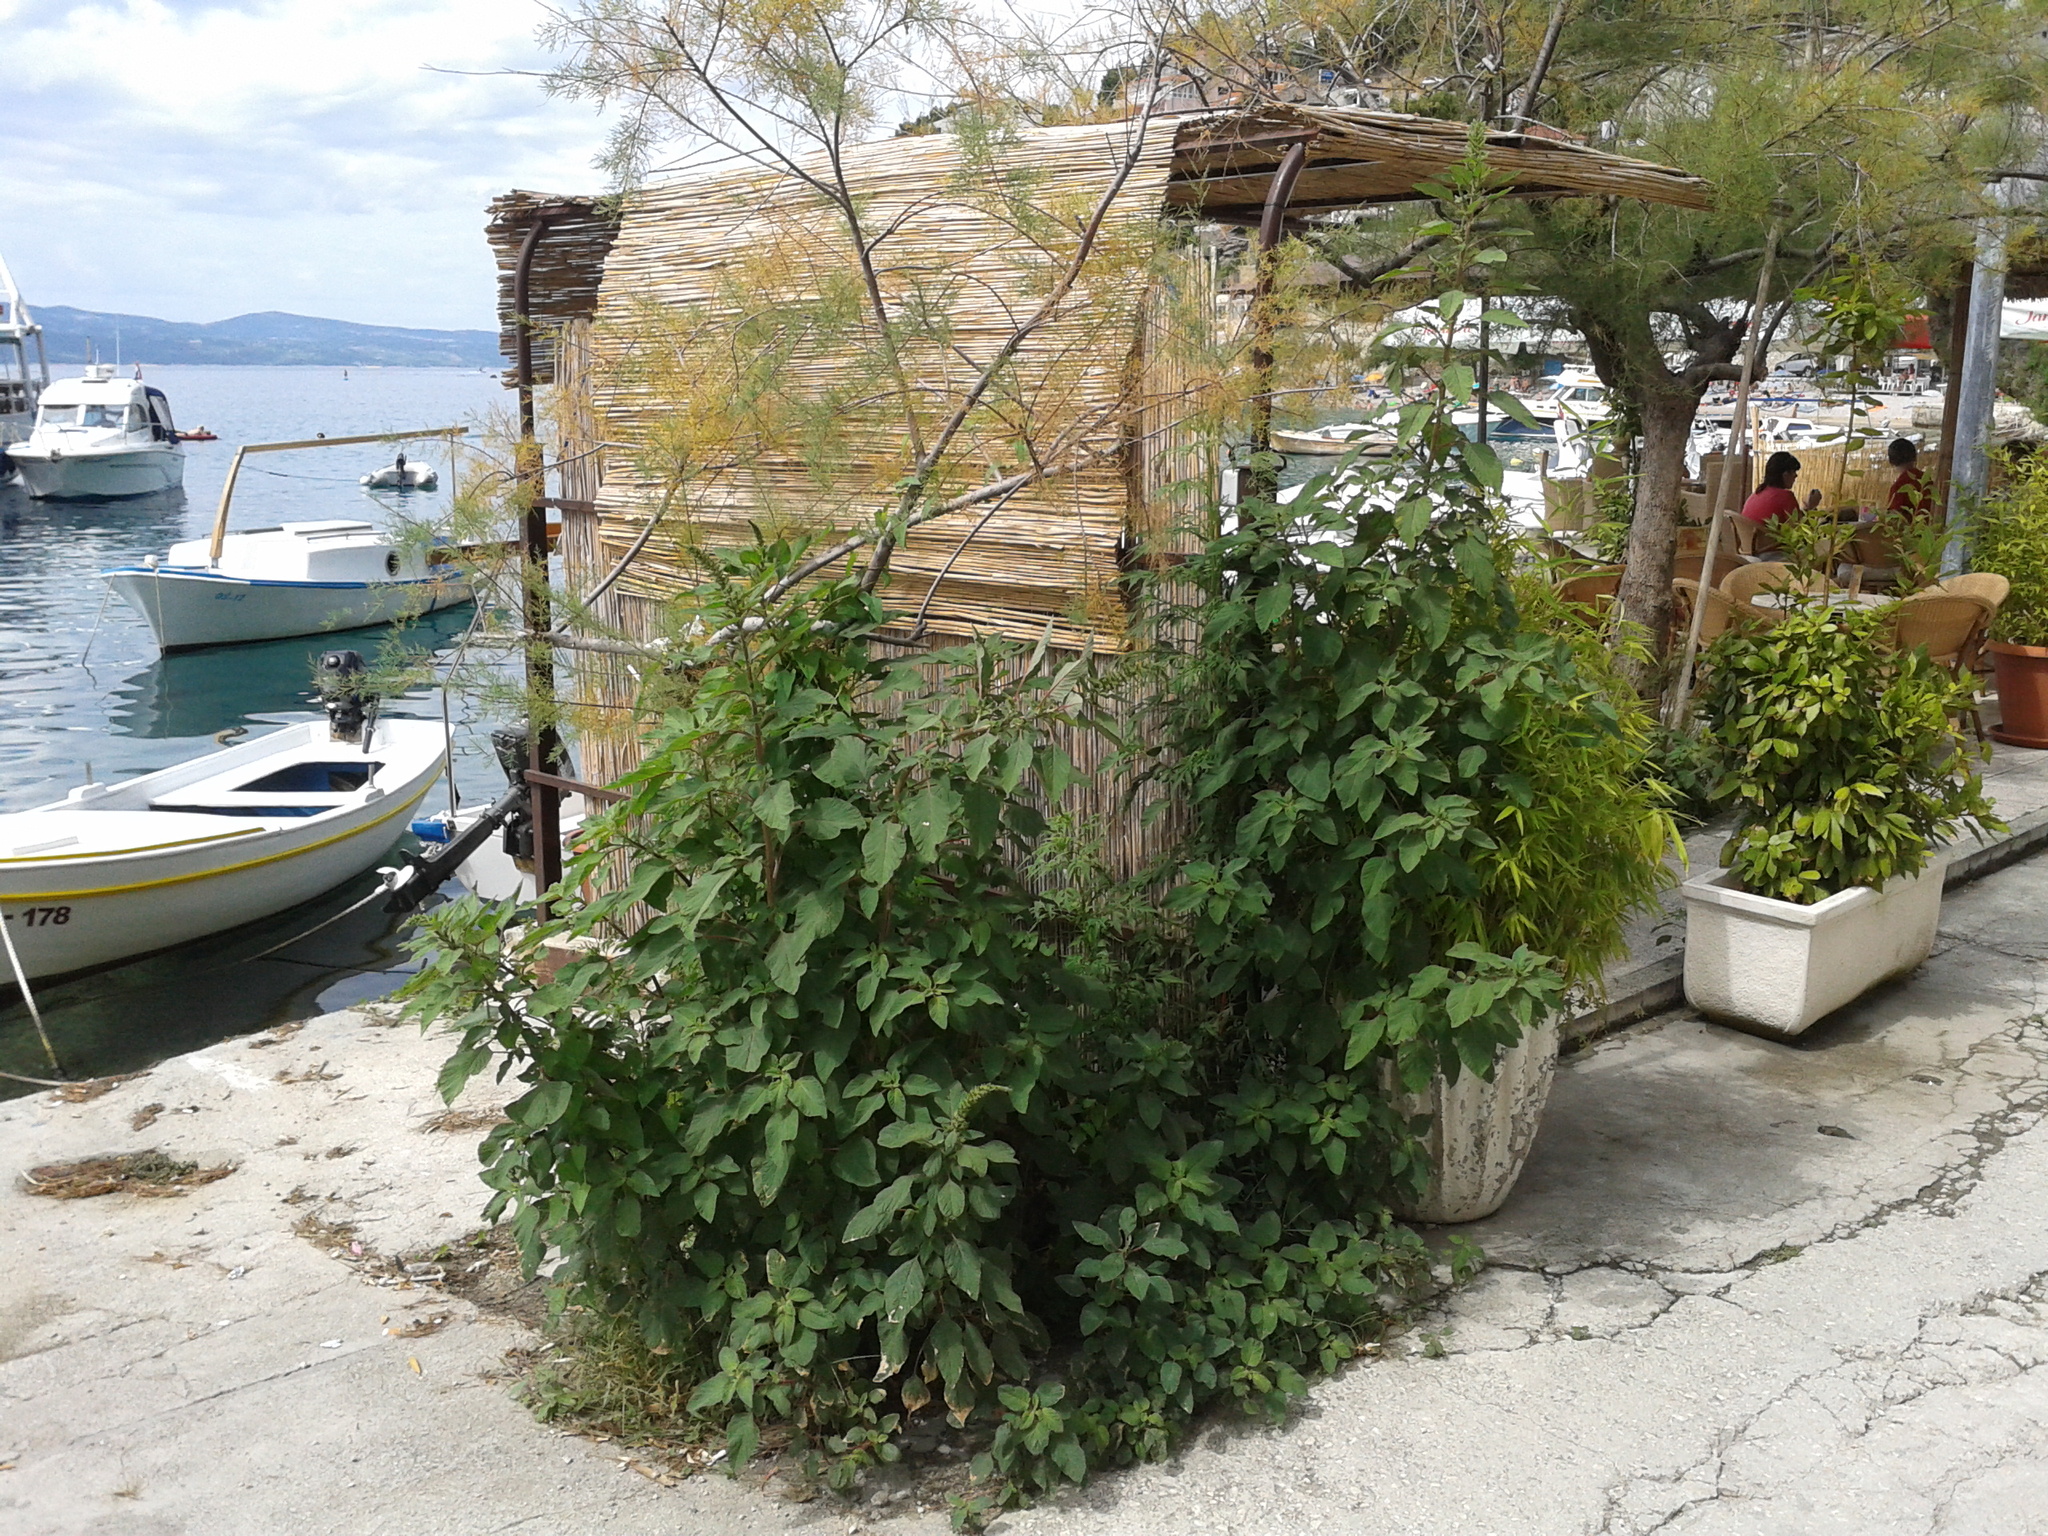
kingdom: Plantae
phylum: Tracheophyta
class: Magnoliopsida
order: Caryophyllales
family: Amaranthaceae
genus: Amaranthus
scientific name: Amaranthus hybridus
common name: Green amaranth
